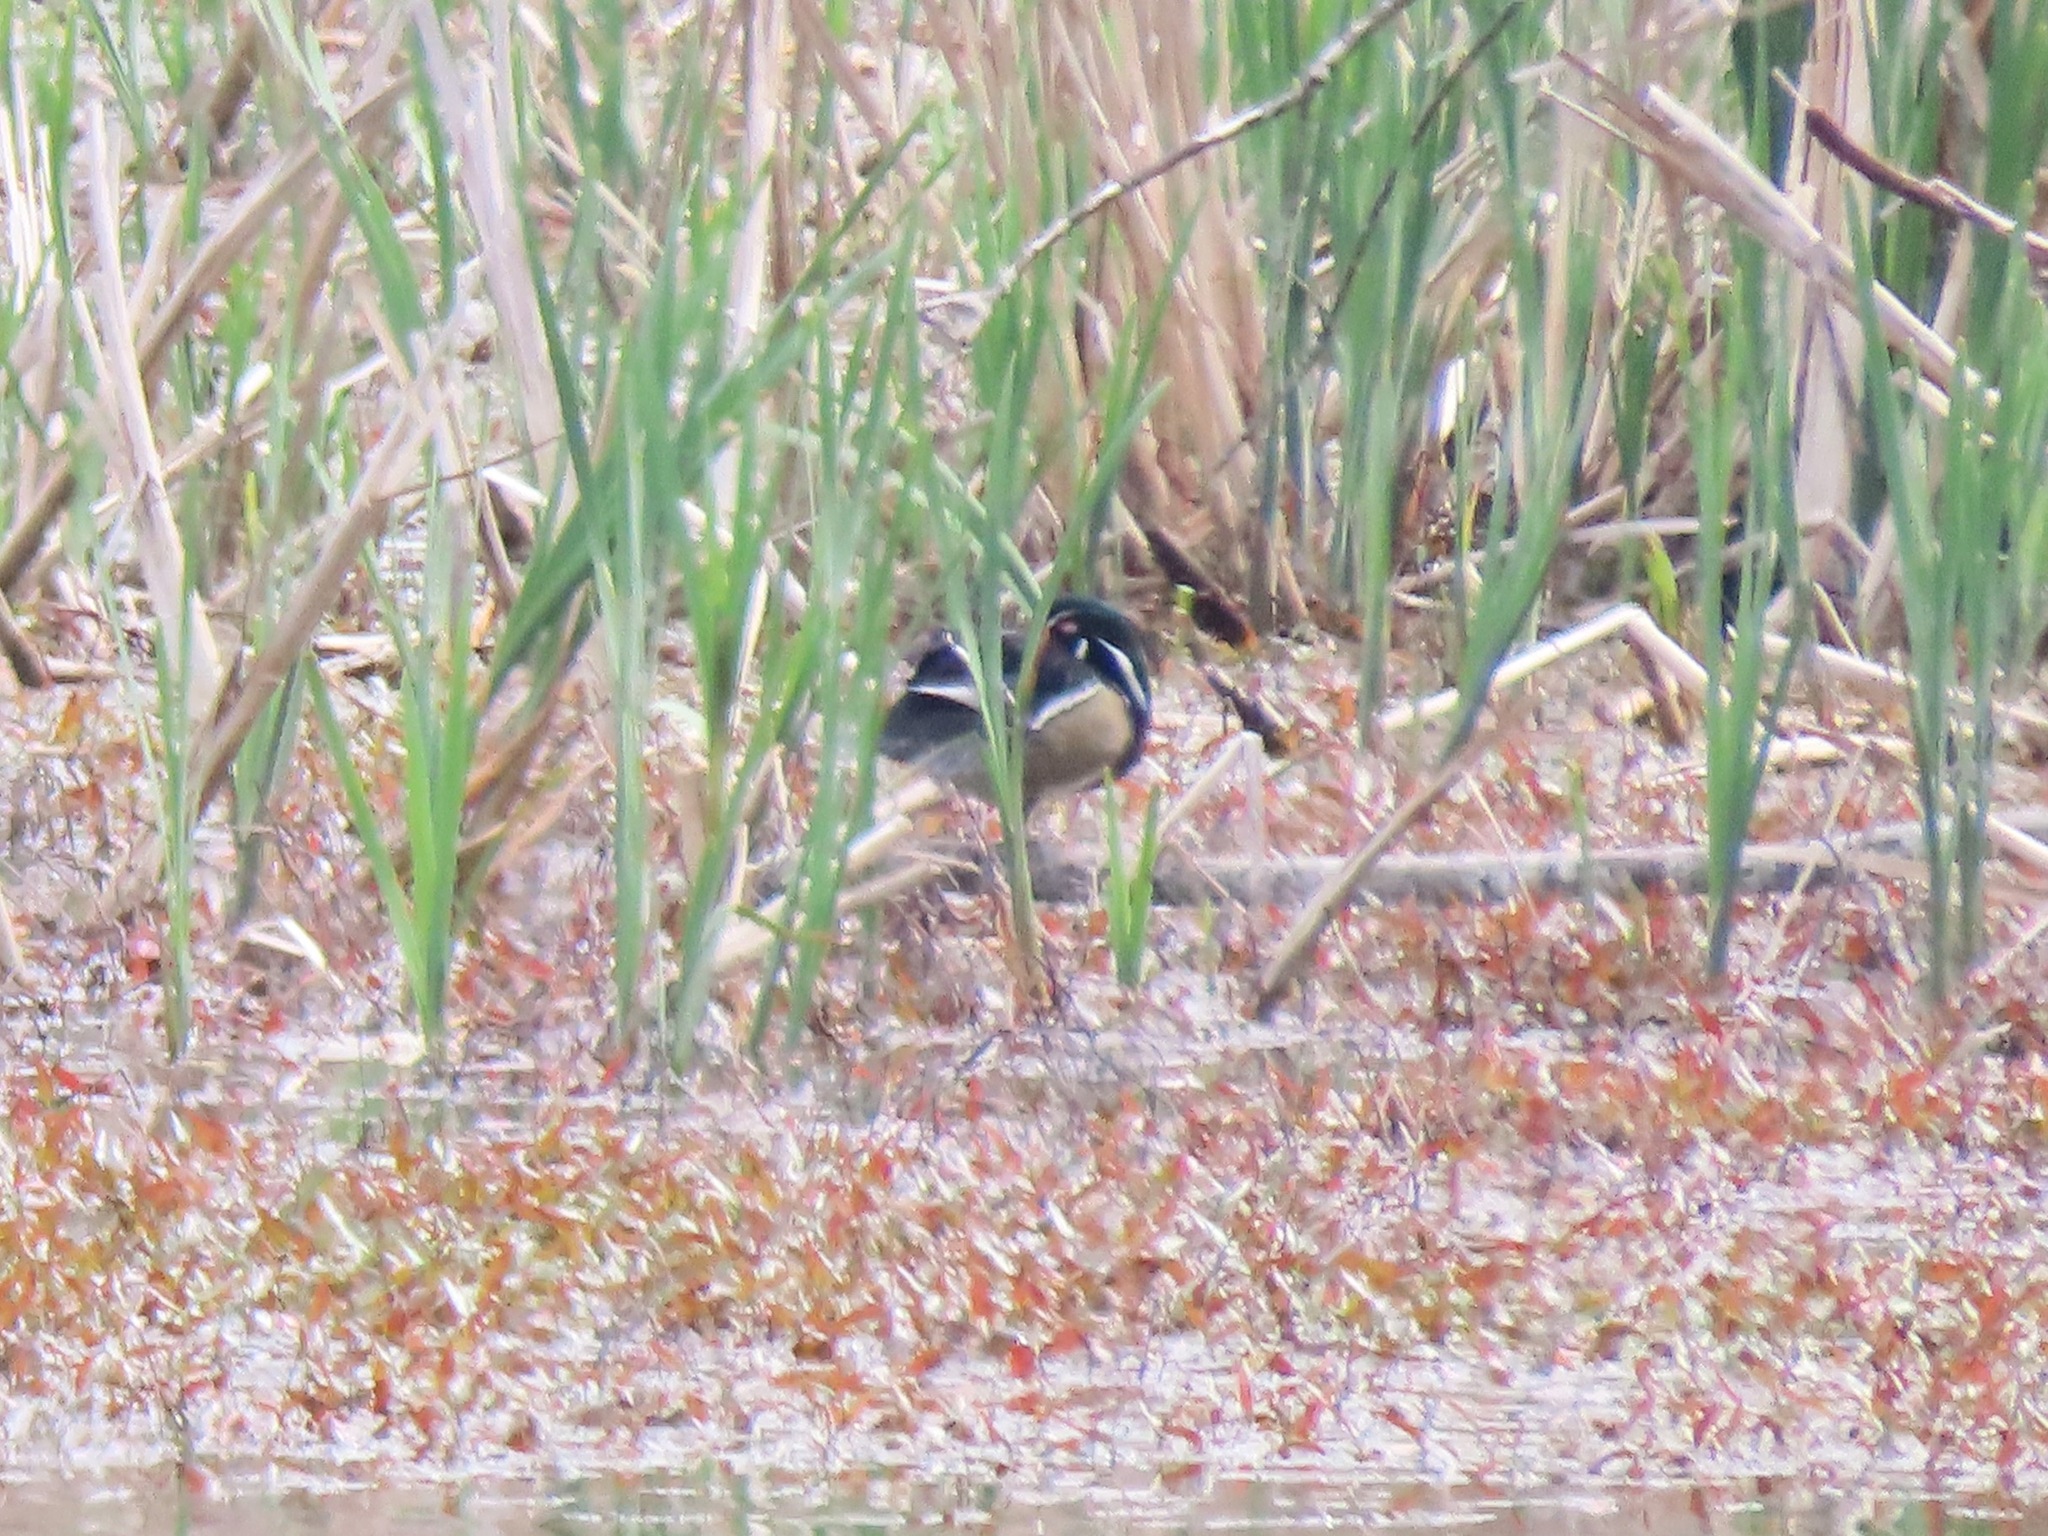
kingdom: Animalia
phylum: Chordata
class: Aves
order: Anseriformes
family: Anatidae
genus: Aix
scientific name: Aix sponsa
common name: Wood duck
